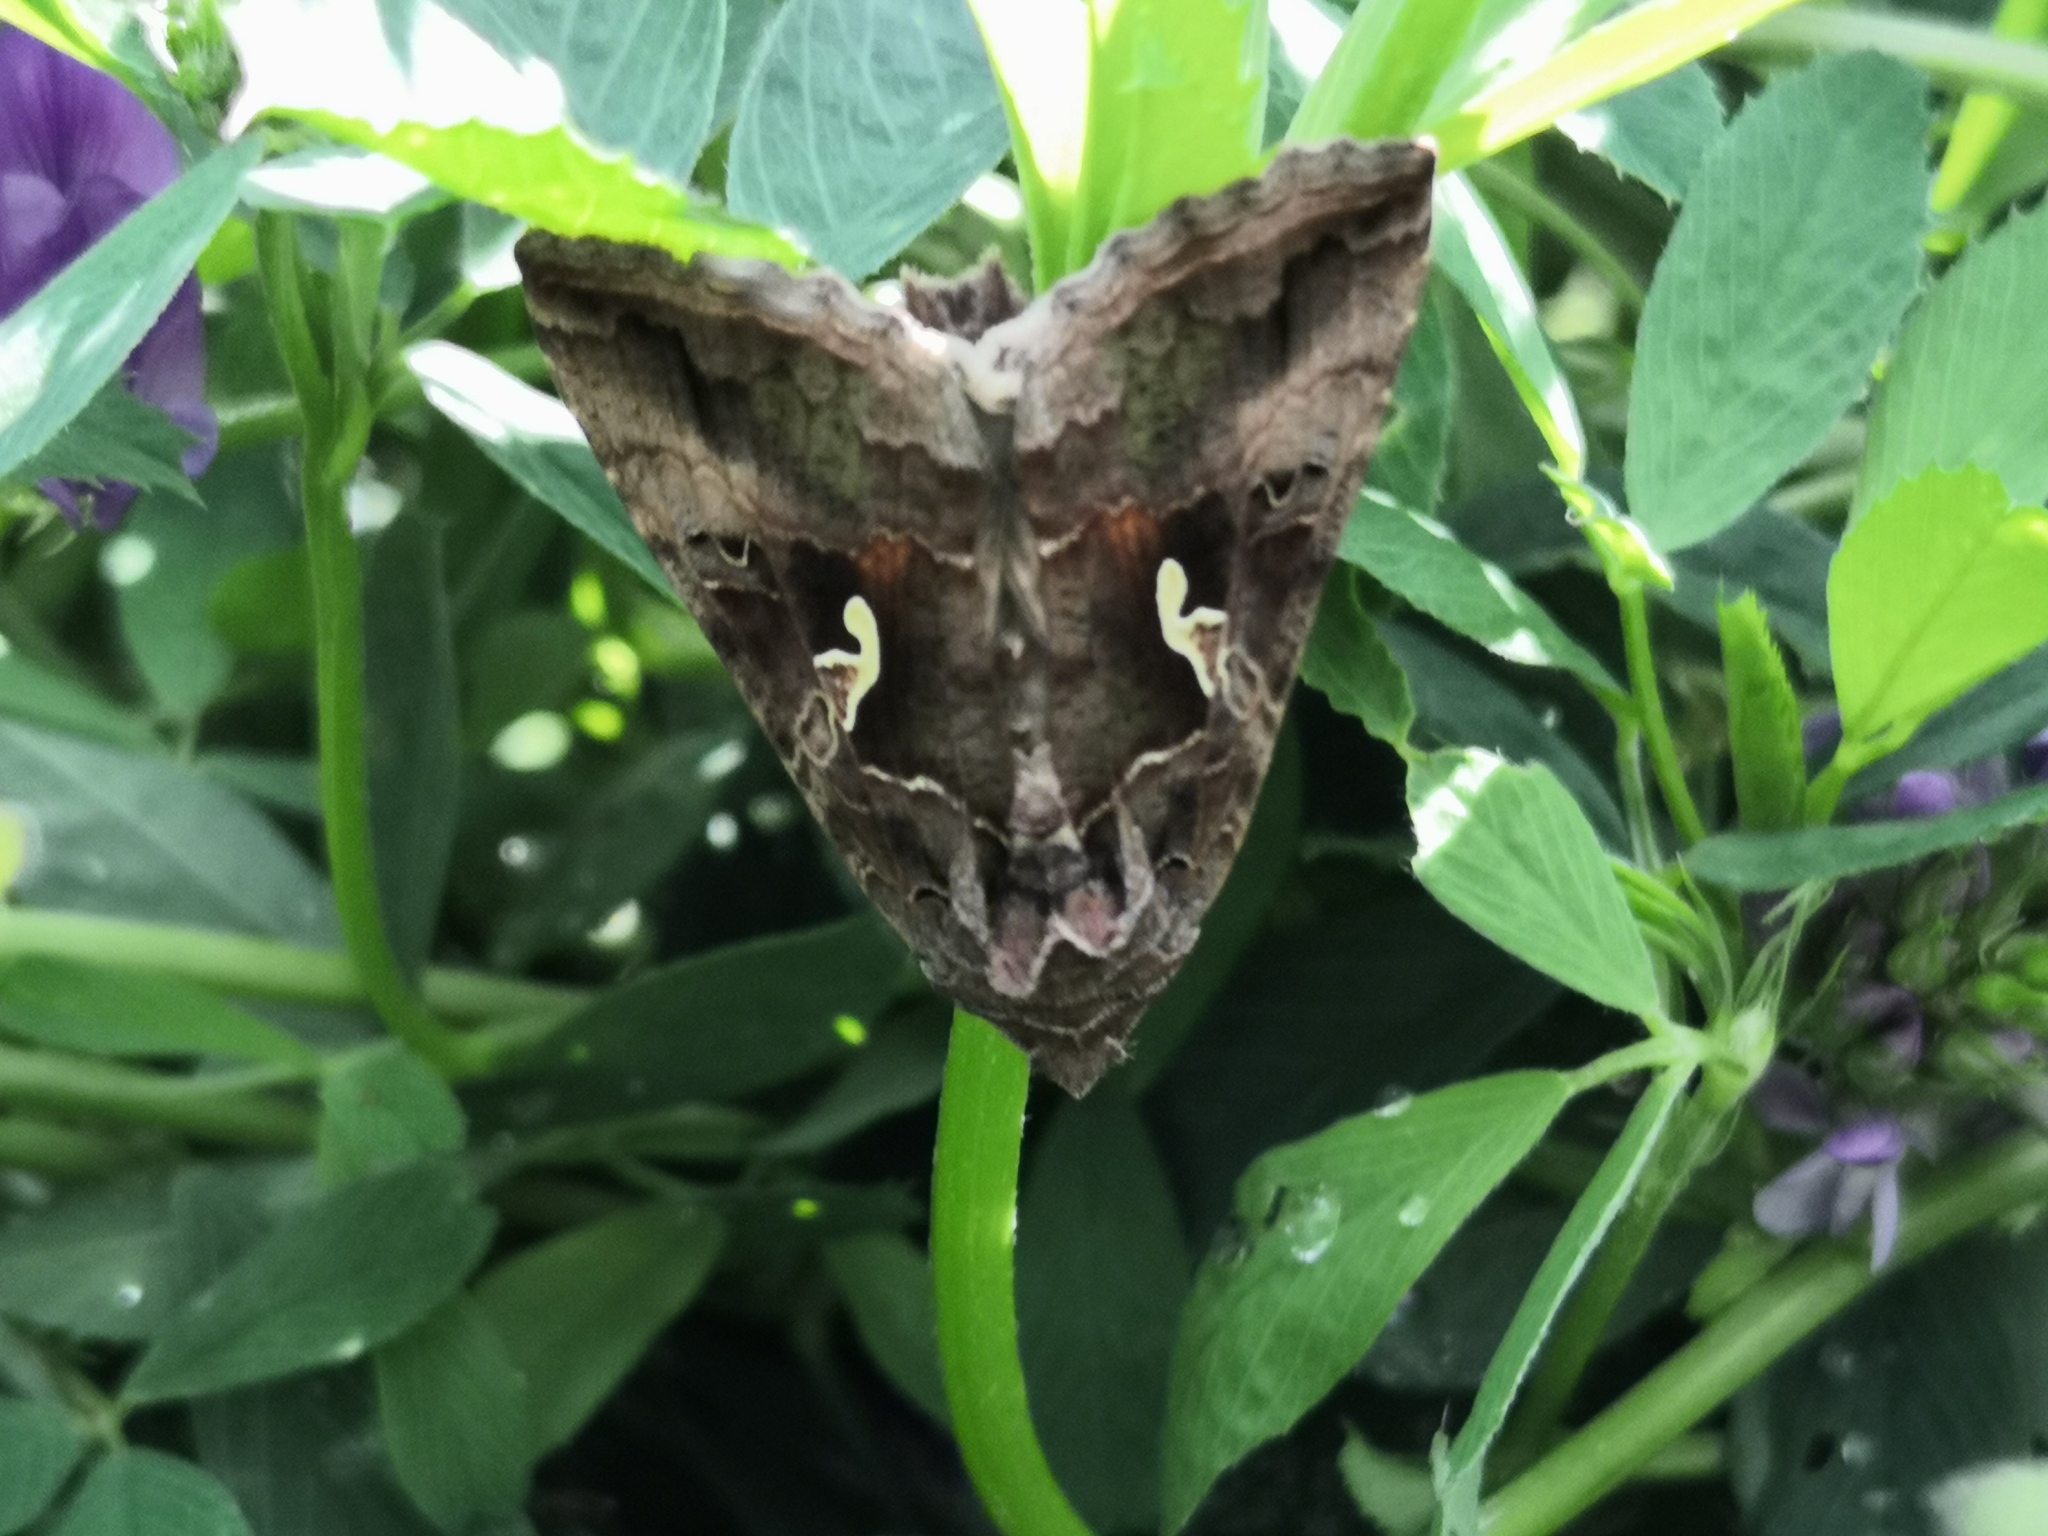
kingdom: Animalia
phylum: Arthropoda
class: Insecta
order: Lepidoptera
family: Noctuidae
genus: Autographa
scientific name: Autographa gamma
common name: Silver y
